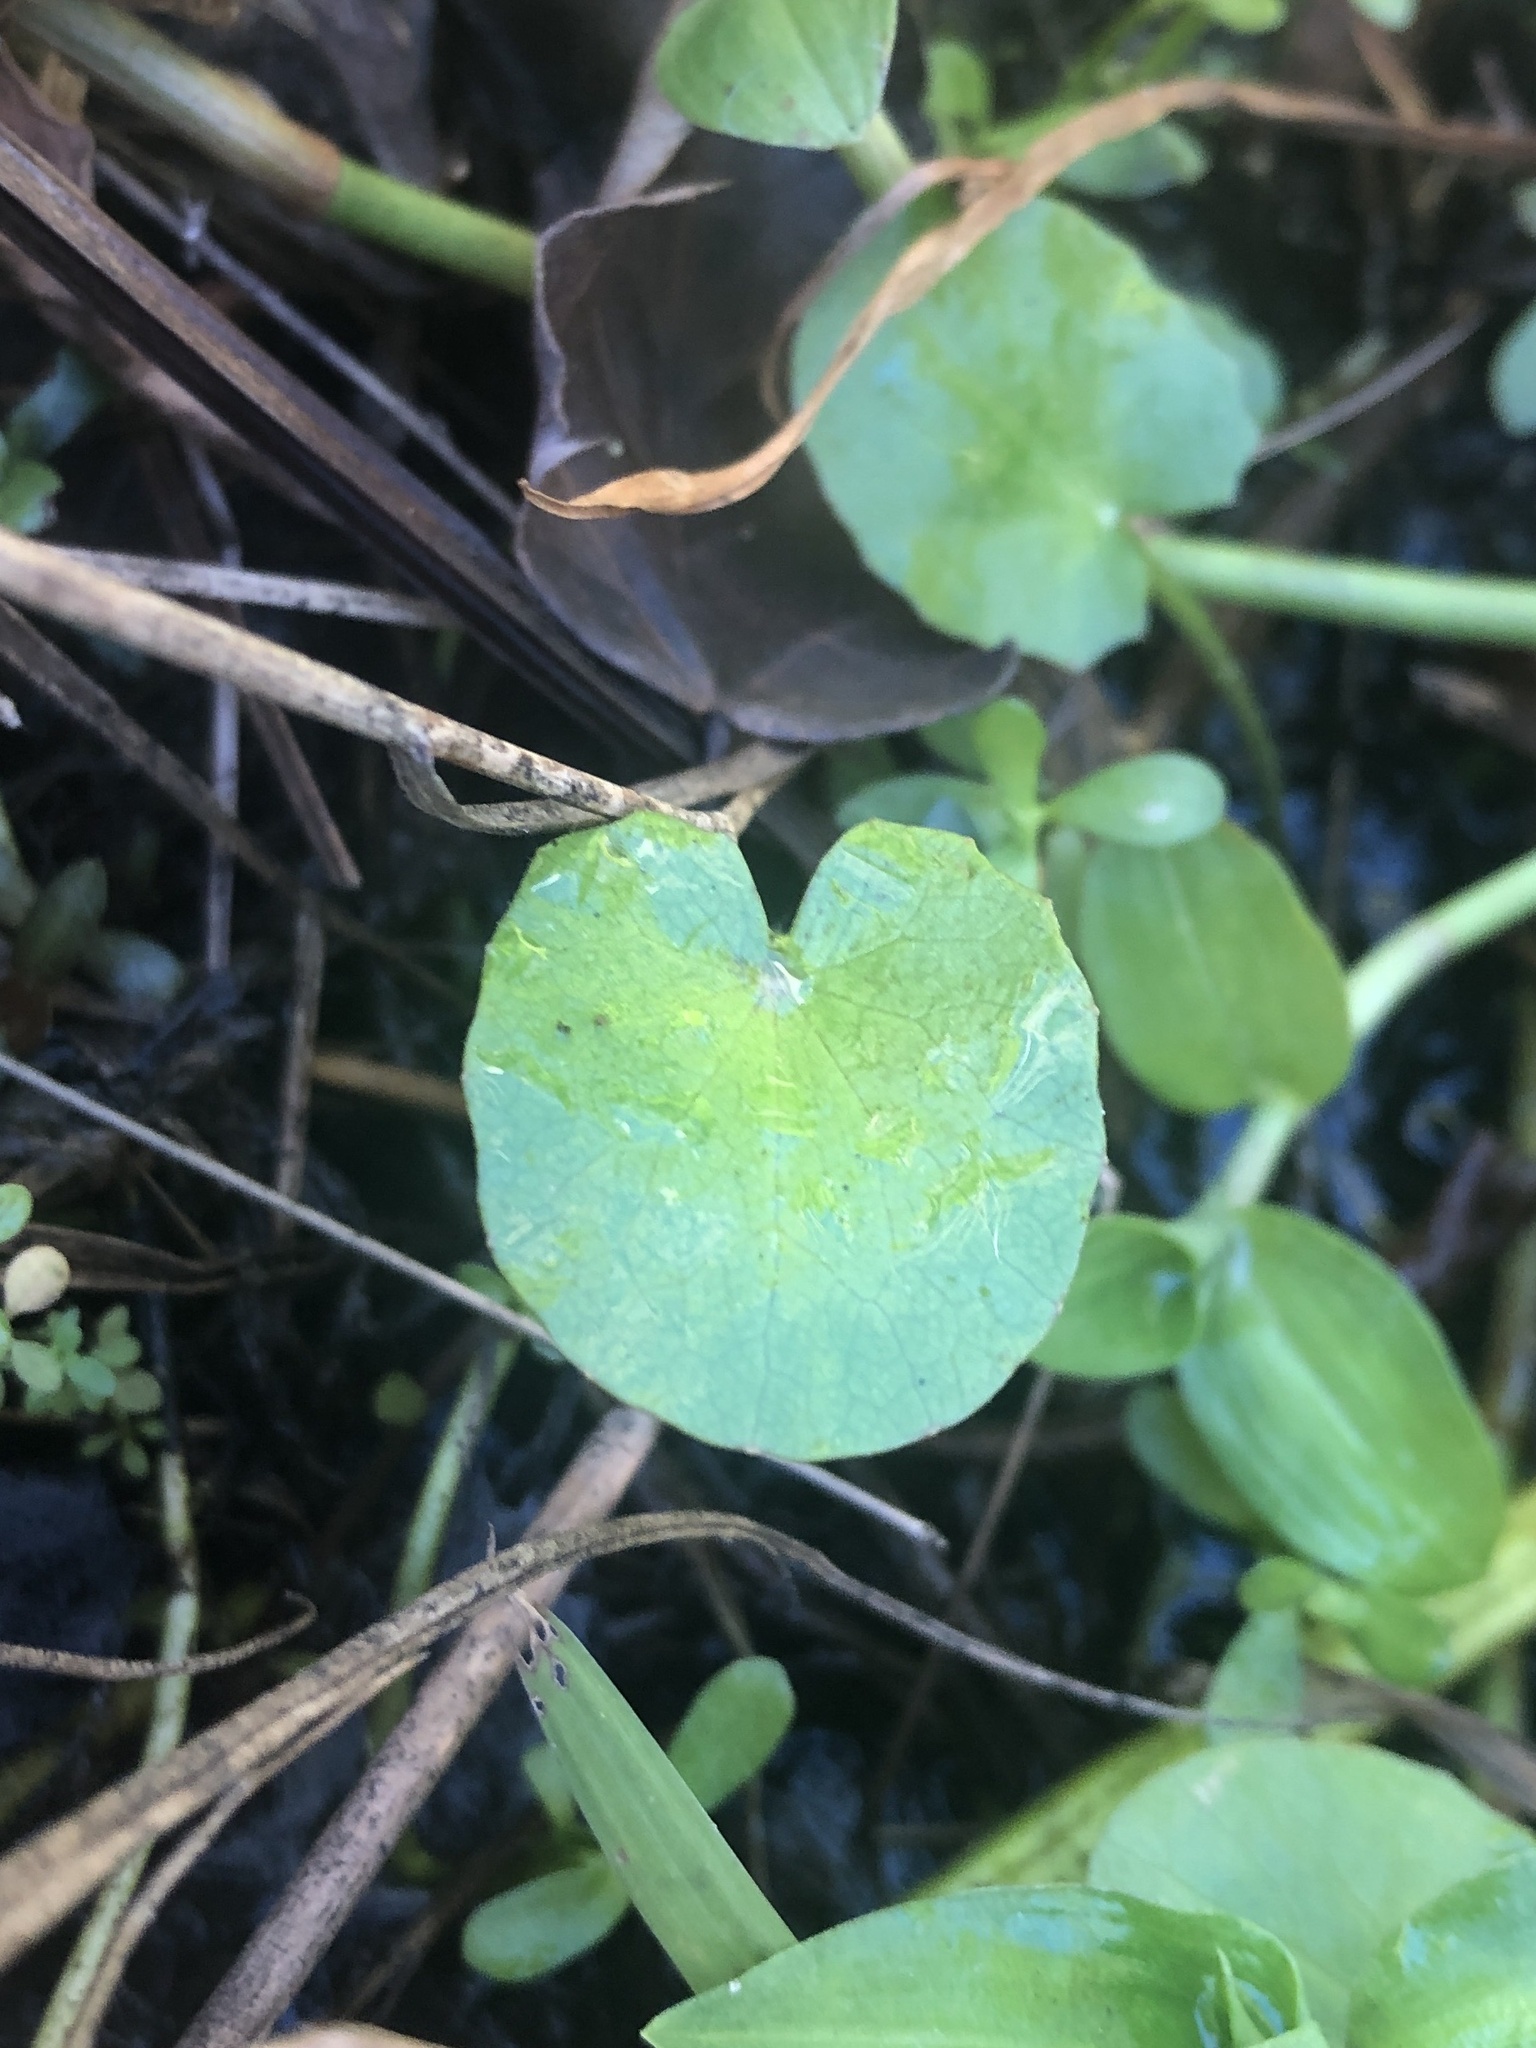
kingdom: Plantae
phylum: Tracheophyta
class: Magnoliopsida
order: Apiales
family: Apiaceae
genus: Centella
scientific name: Centella erecta
